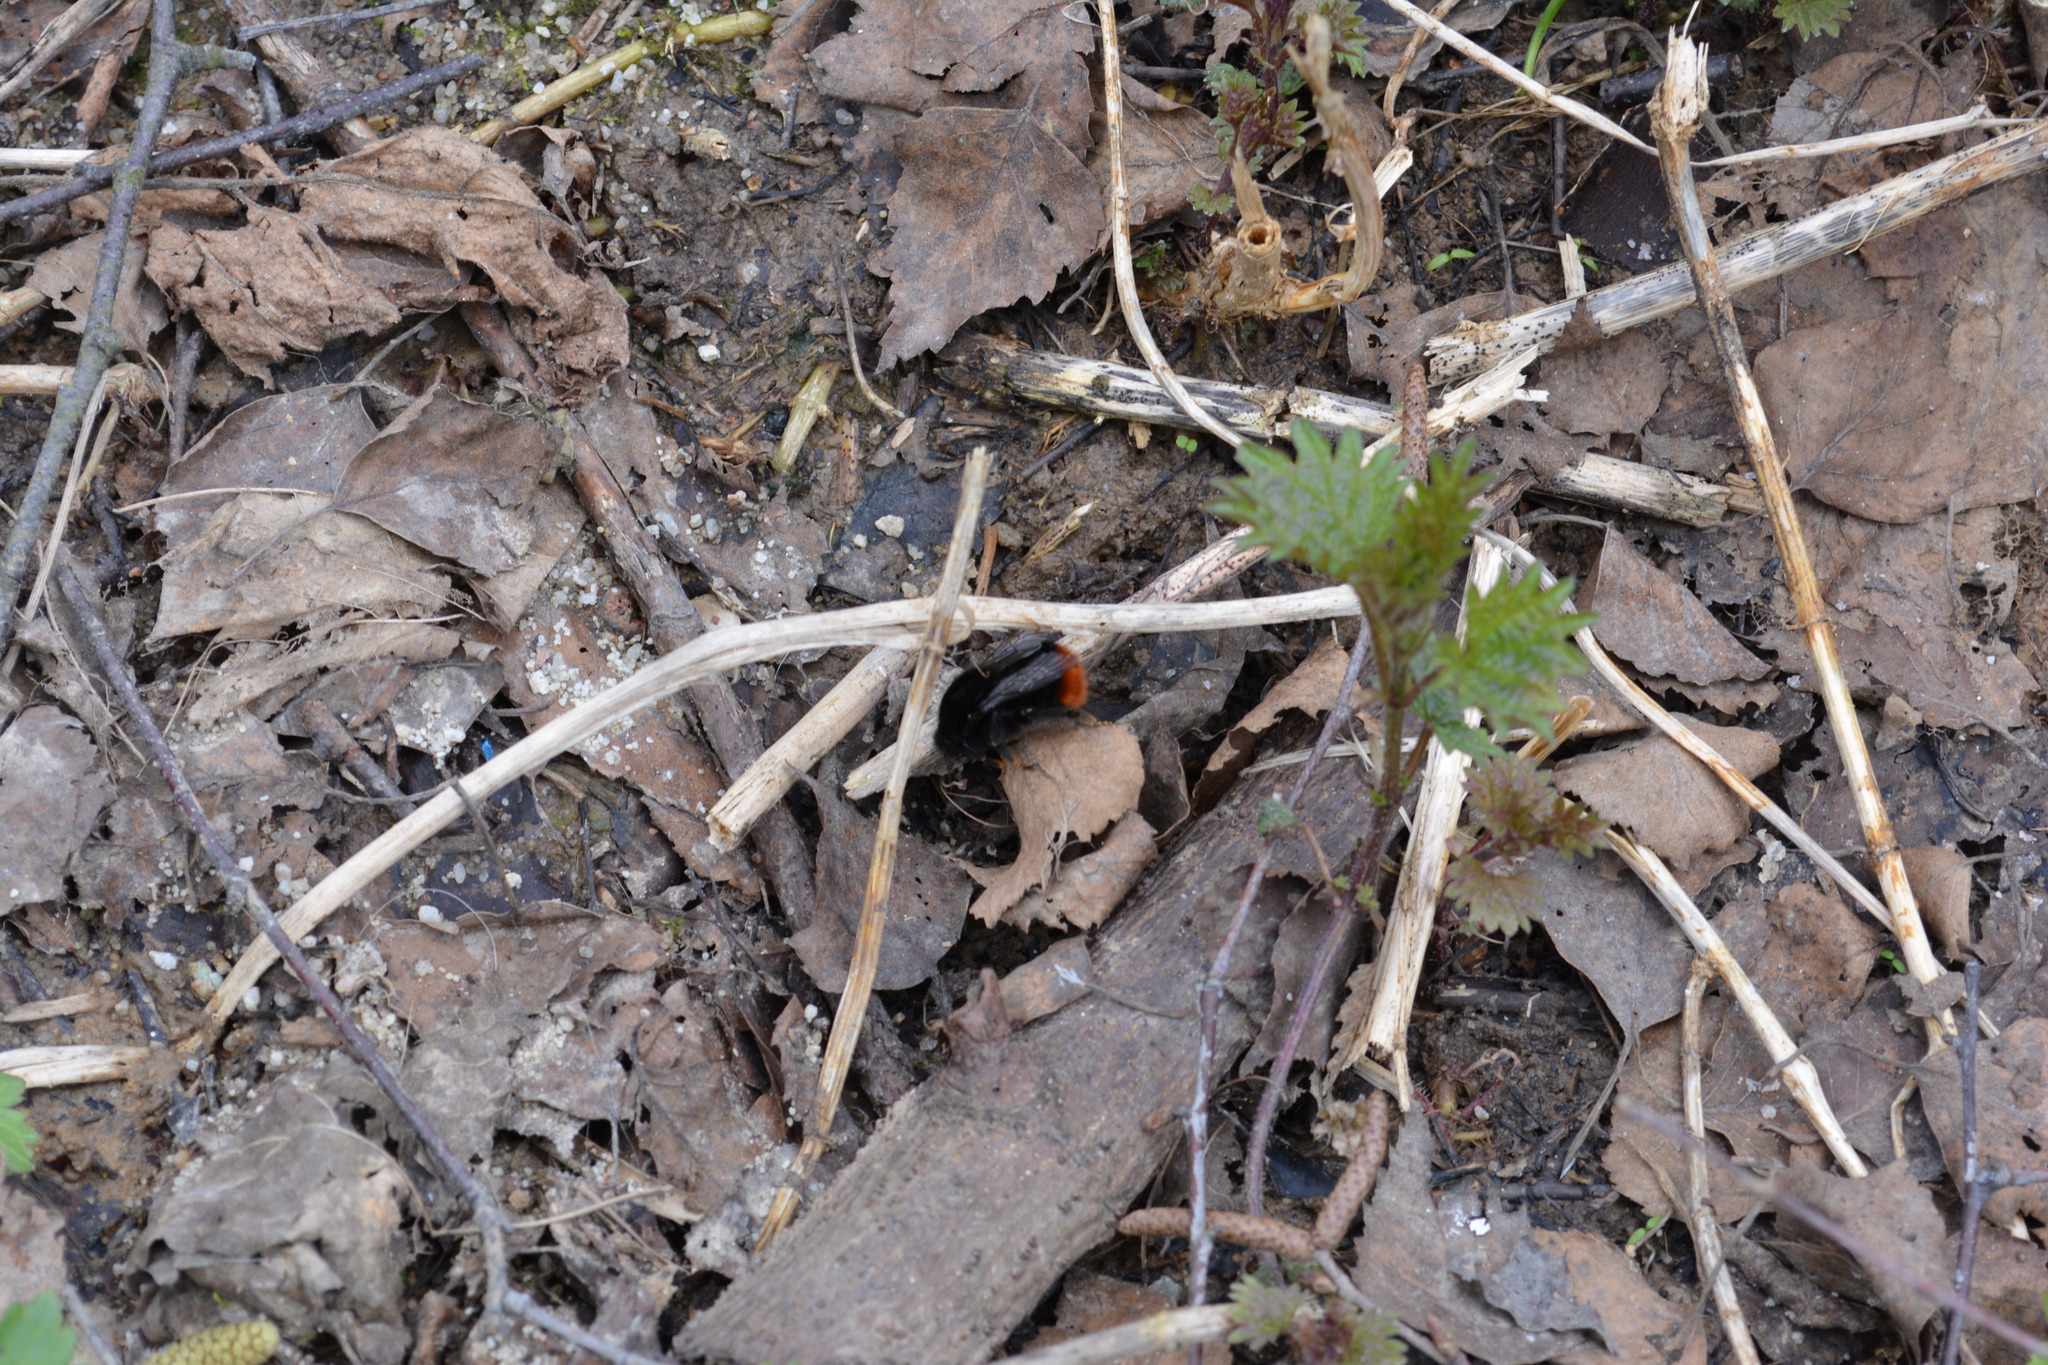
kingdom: Animalia
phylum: Arthropoda
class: Insecta
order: Hymenoptera
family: Apidae
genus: Bombus
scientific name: Bombus lapidarius
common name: Large red-tailed humble-bee
